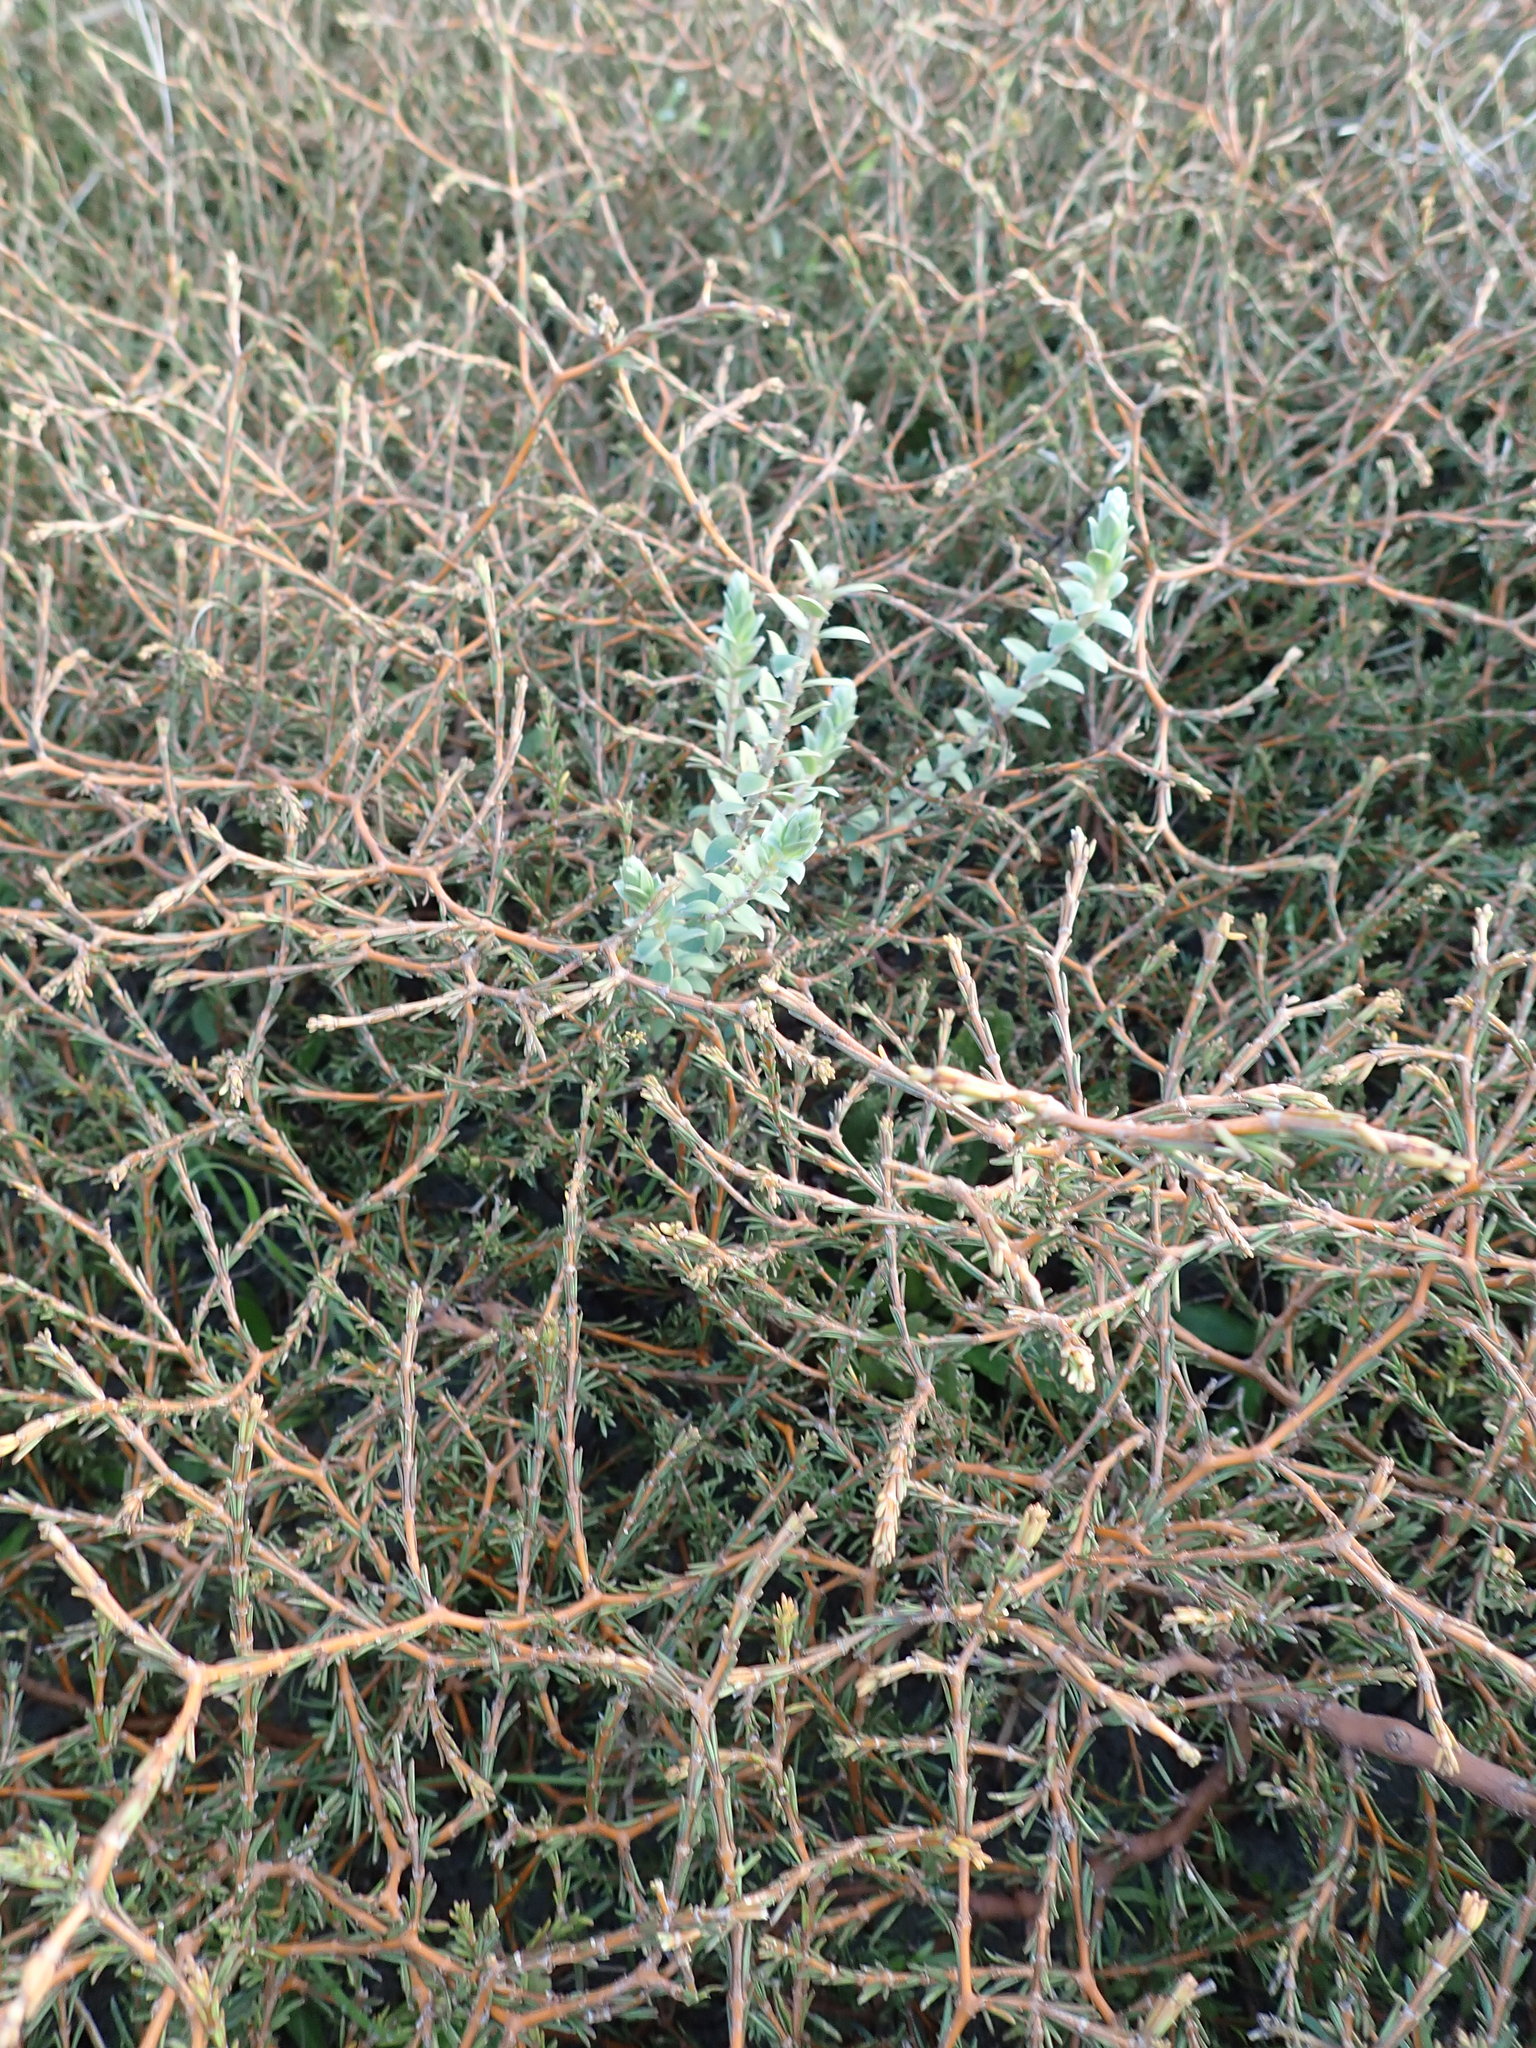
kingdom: Plantae
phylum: Tracheophyta
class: Magnoliopsida
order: Malvales
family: Thymelaeaceae
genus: Pimelea
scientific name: Pimelea villosa
